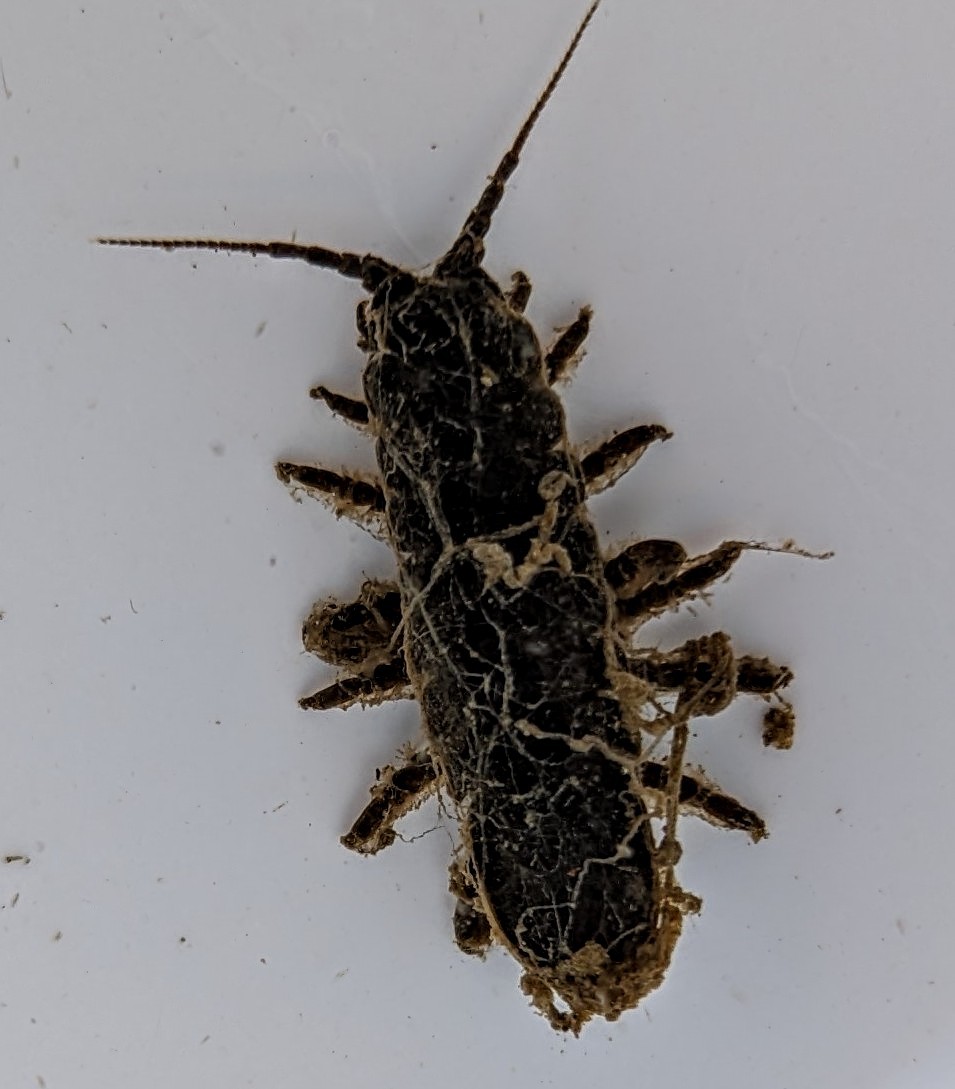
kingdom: Animalia
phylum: Arthropoda
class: Malacostraca
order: Isopoda
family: Idoteidae
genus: Pentidotea
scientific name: Pentidotea wosnesenskii
